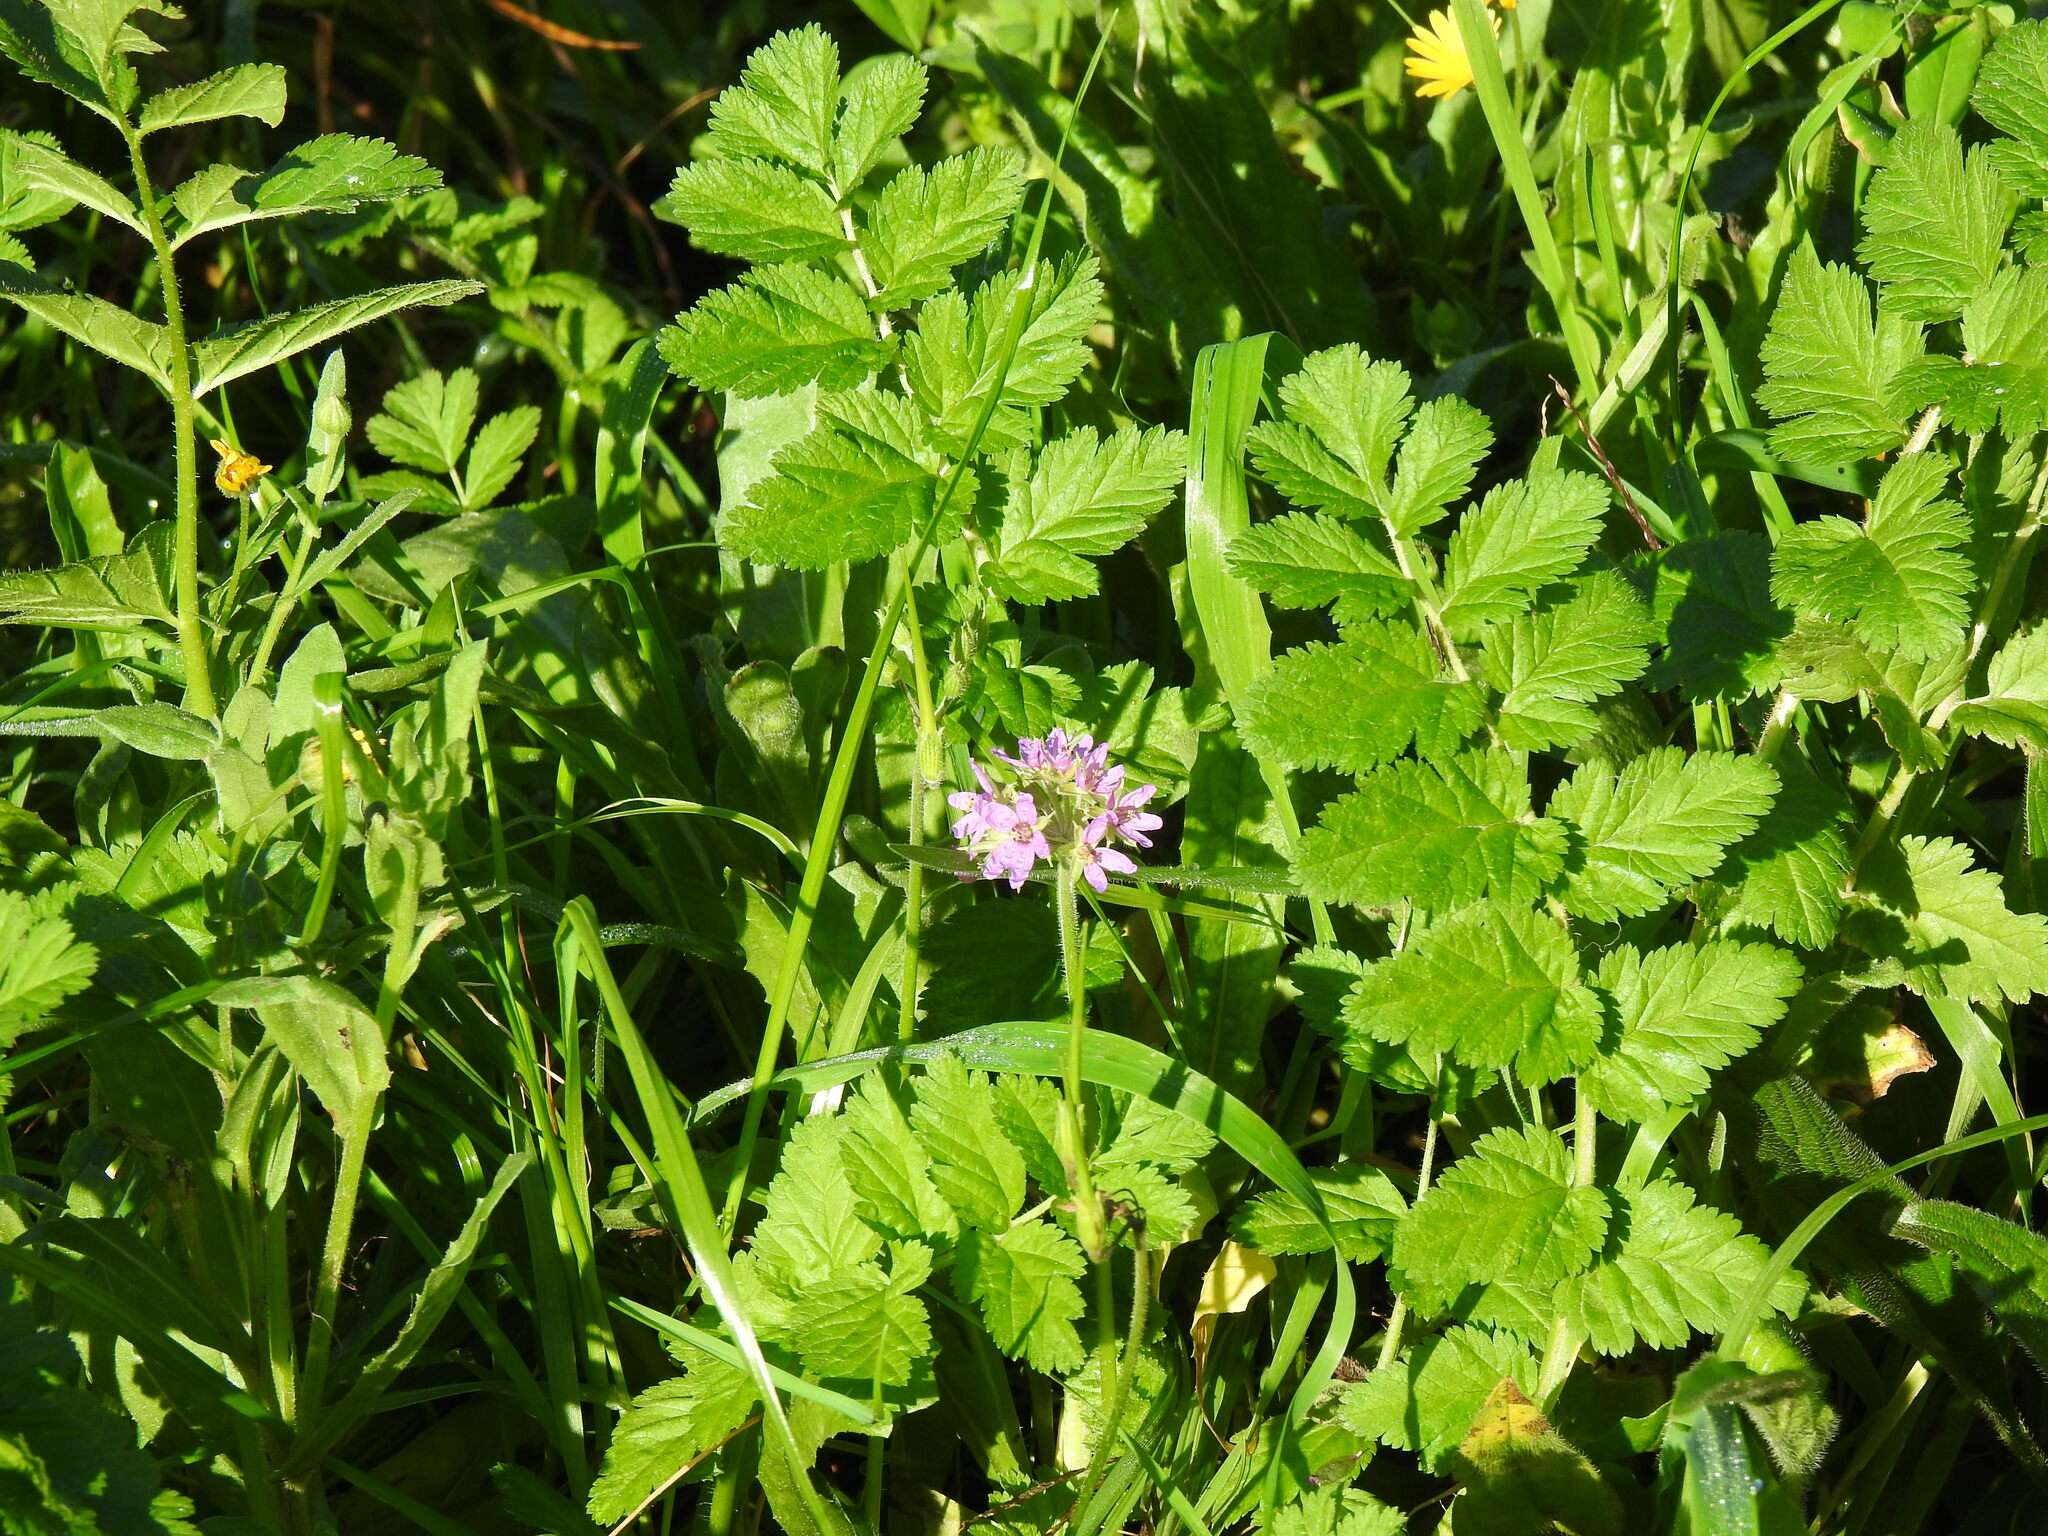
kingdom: Plantae
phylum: Tracheophyta
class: Magnoliopsida
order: Geraniales
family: Geraniaceae
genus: Erodium
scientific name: Erodium moschatum
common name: Musk stork's-bill
